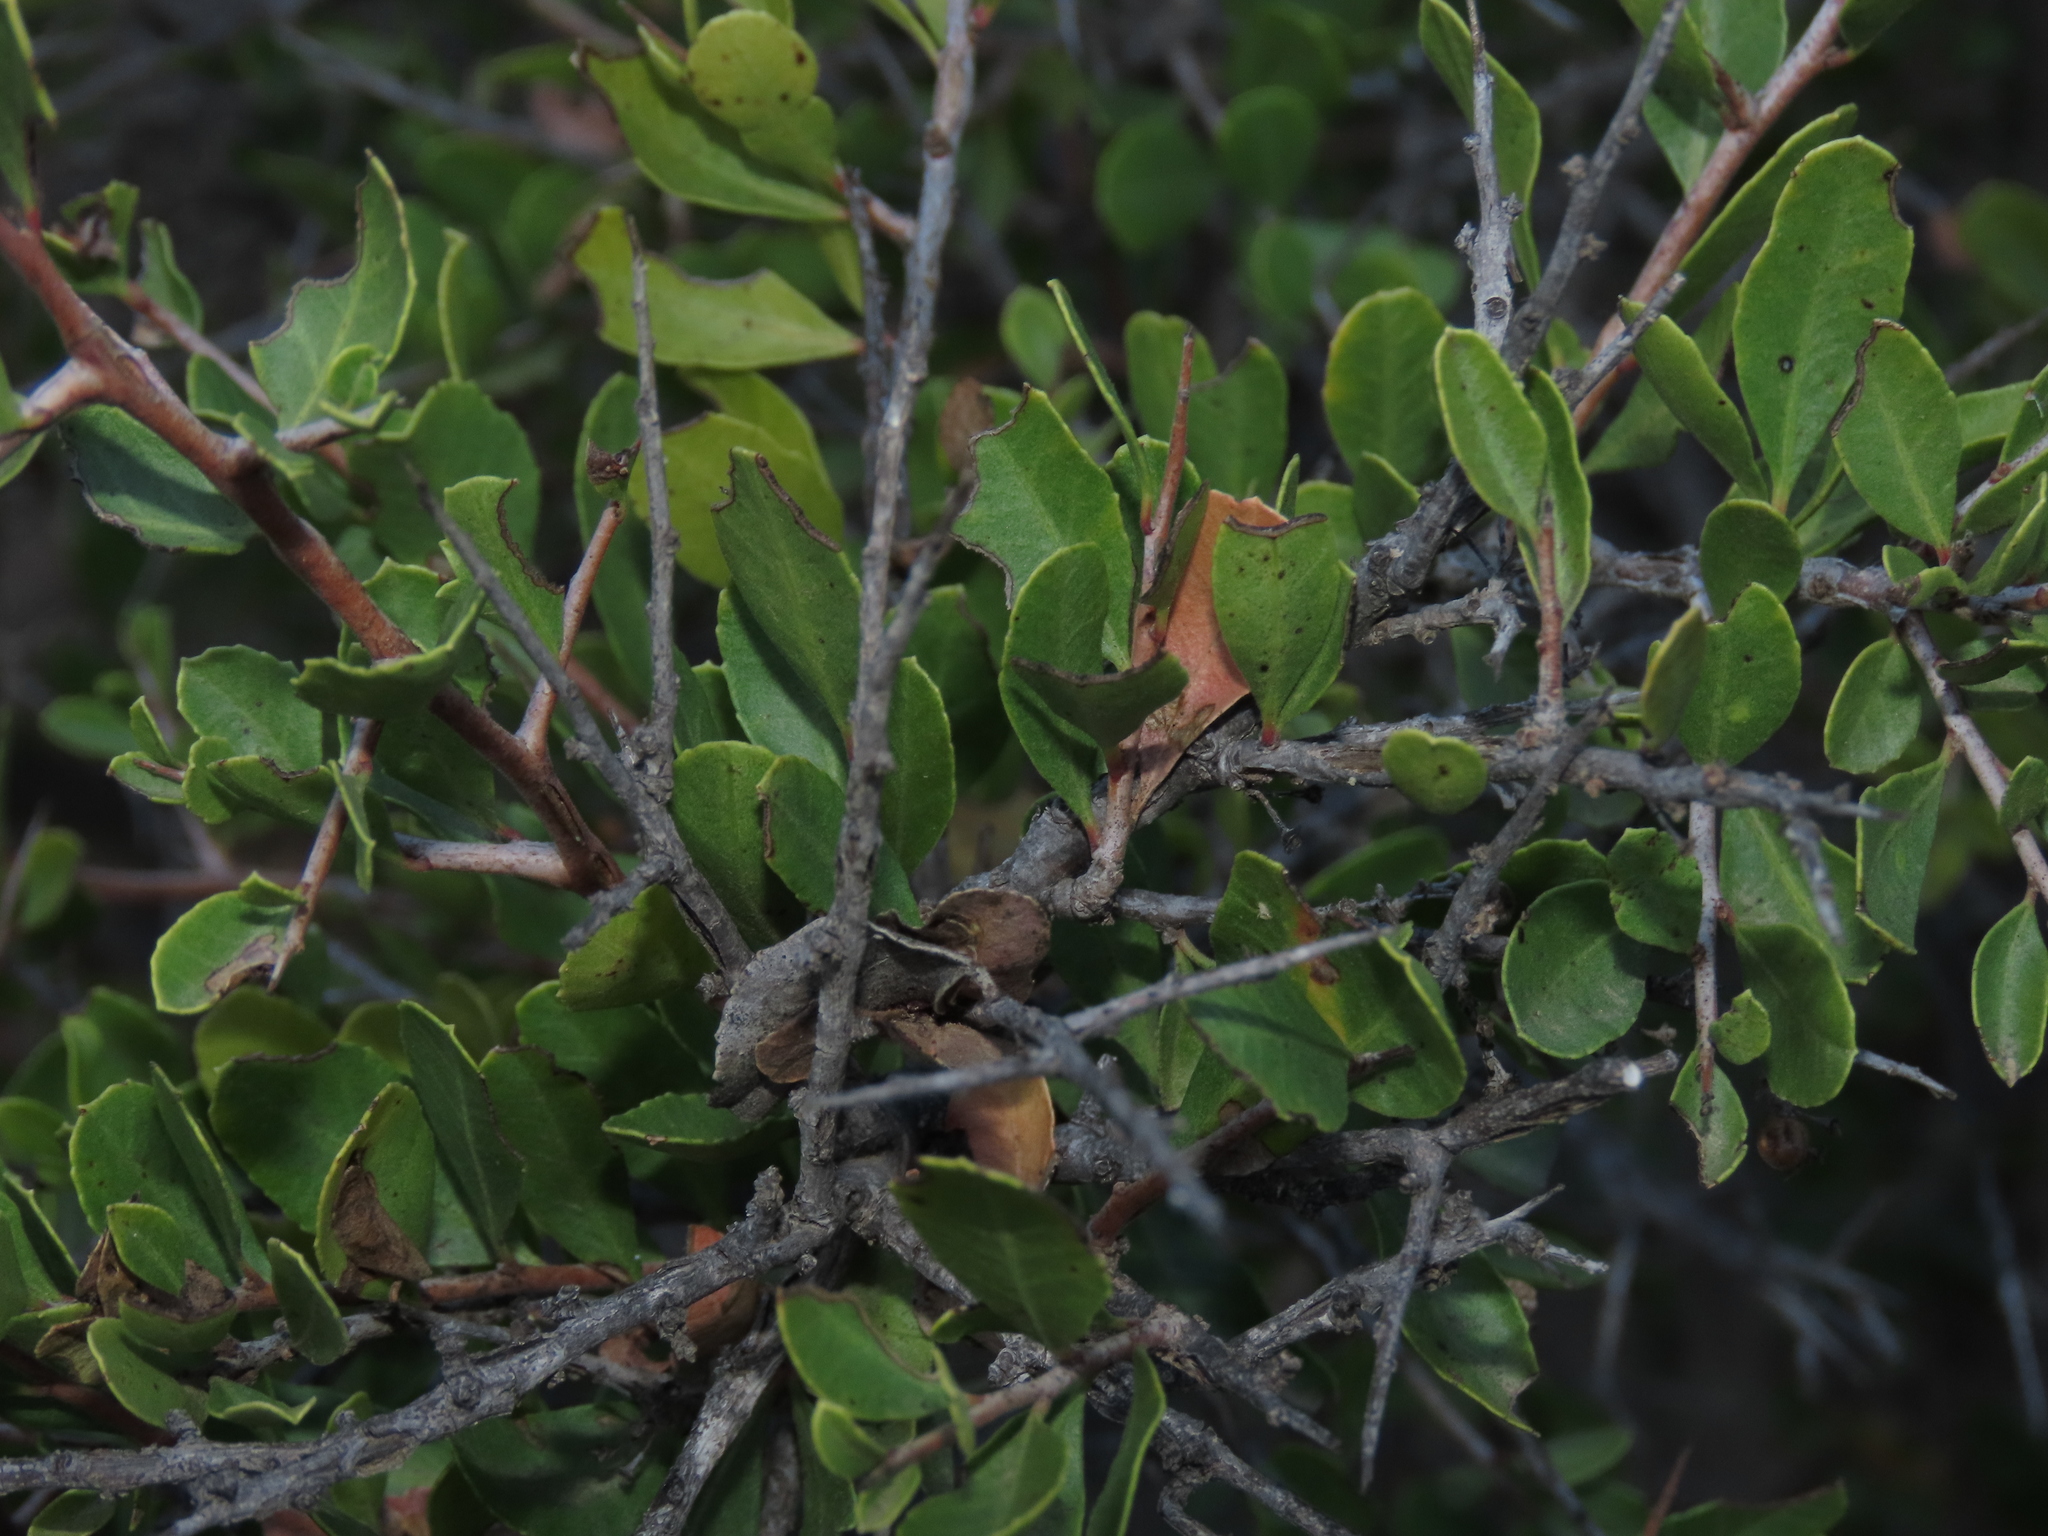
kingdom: Plantae
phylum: Tracheophyta
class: Magnoliopsida
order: Sapindales
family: Anacardiaceae
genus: Schinus
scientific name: Schinus polygama
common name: Hardee peppertree
